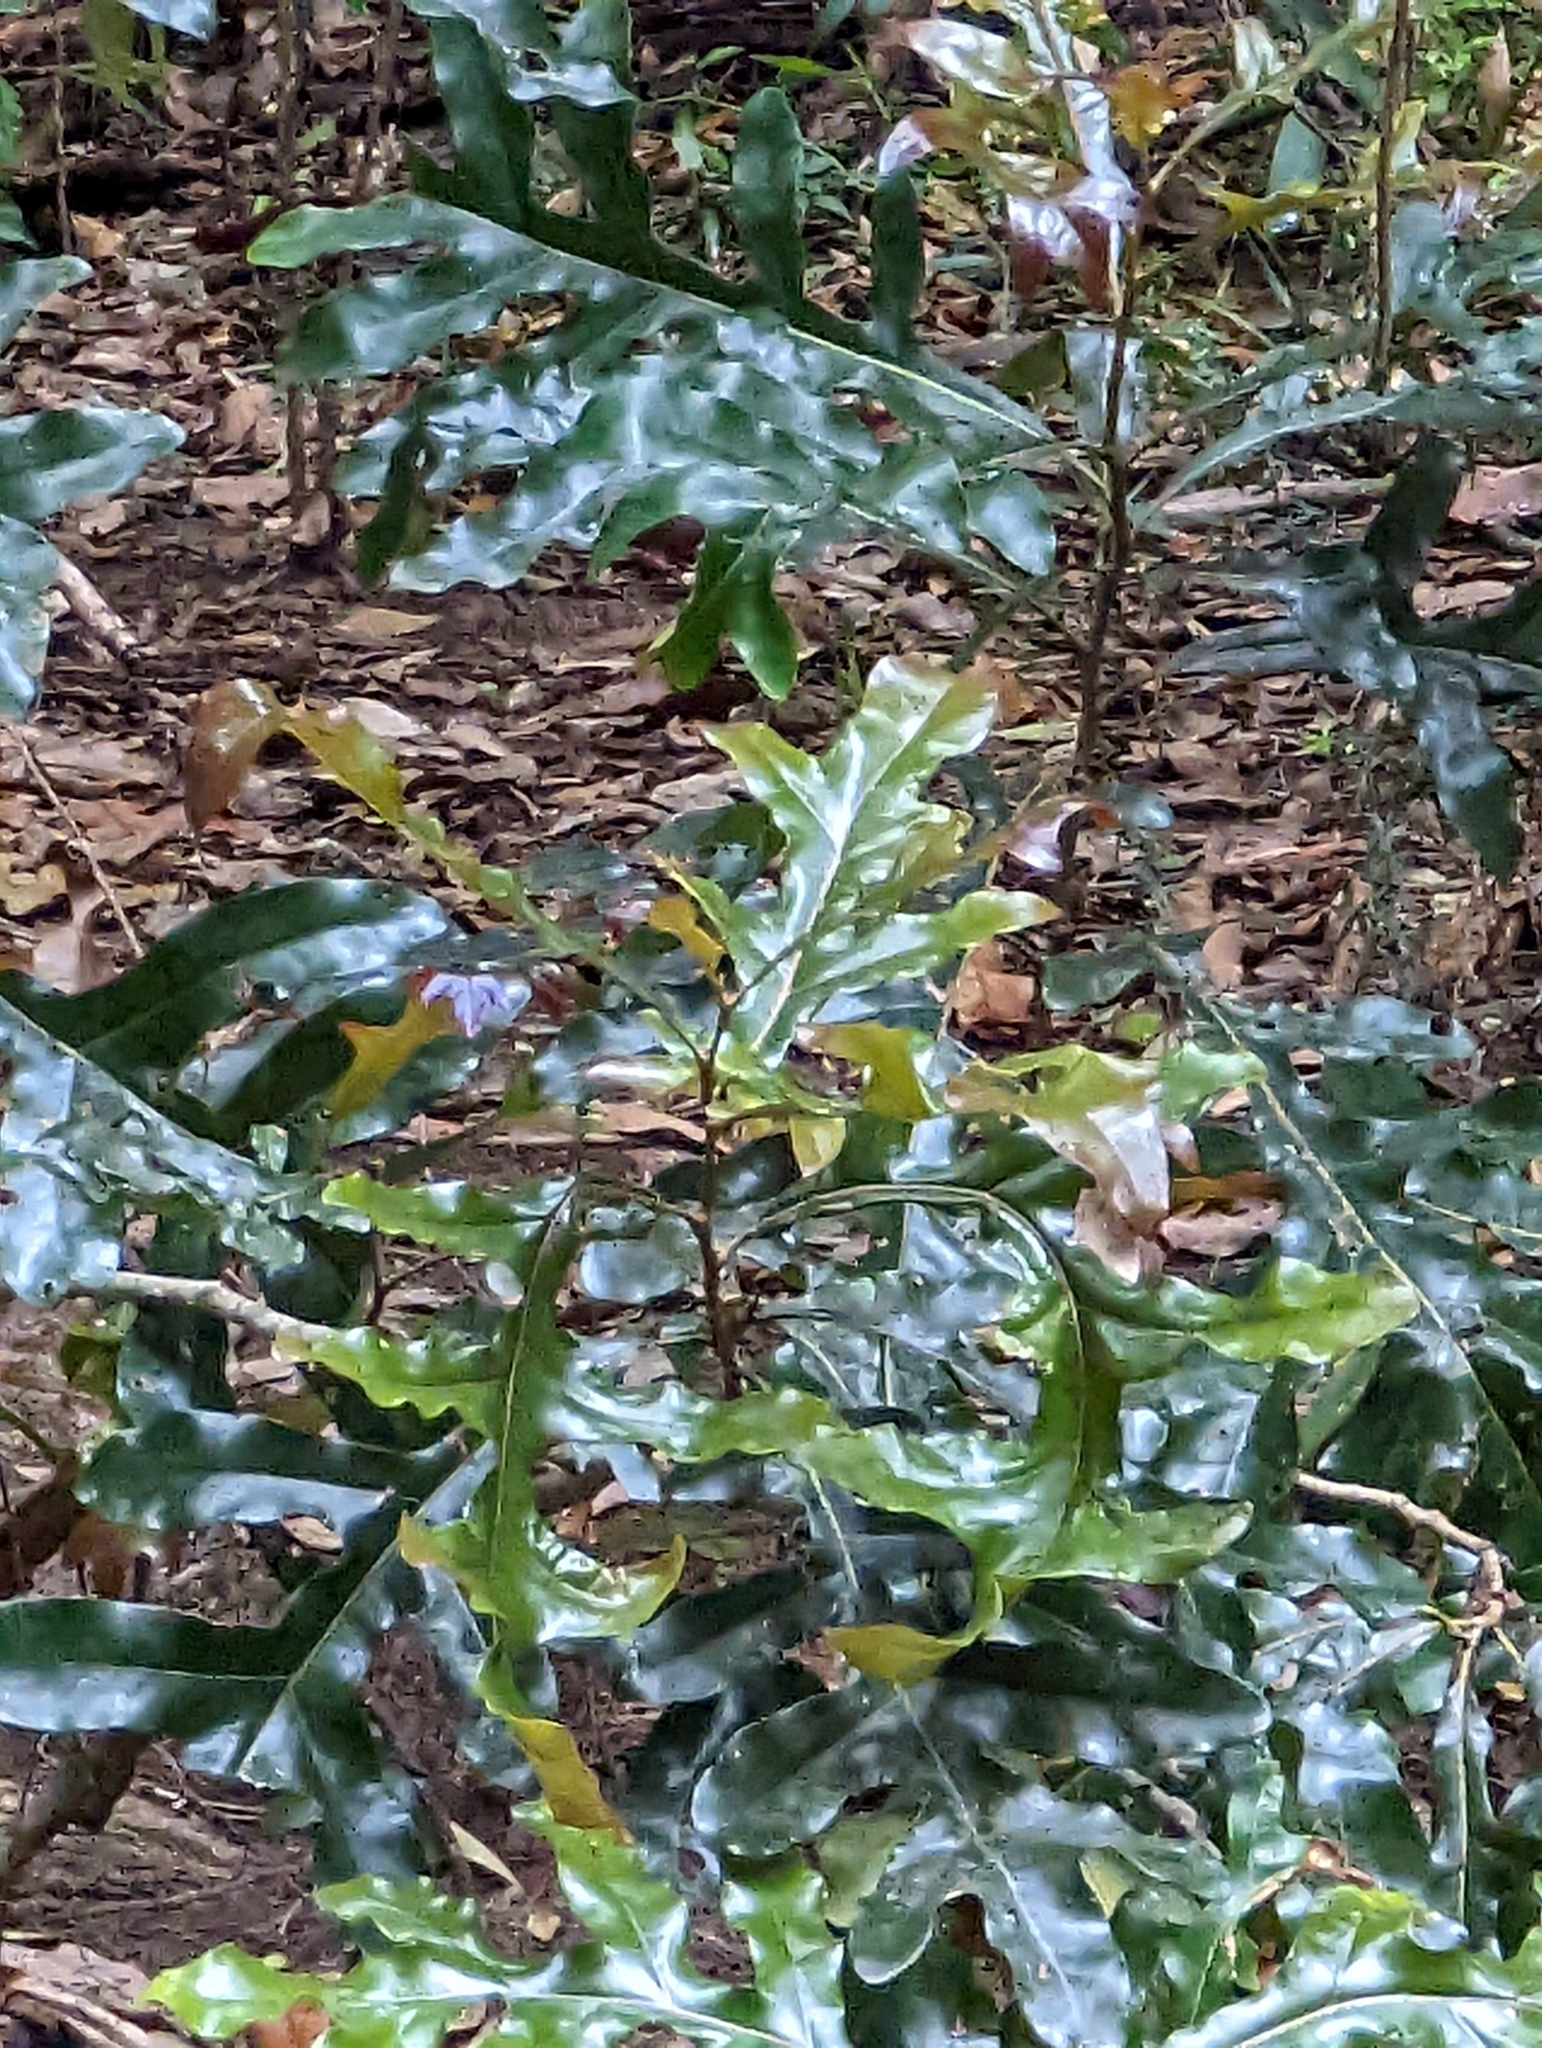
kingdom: Plantae
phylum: Tracheophyta
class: Magnoliopsida
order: Proteales
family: Proteaceae
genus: Stenocarpus
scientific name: Stenocarpus sinuatus
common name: Queensland fire-wheel-tree
